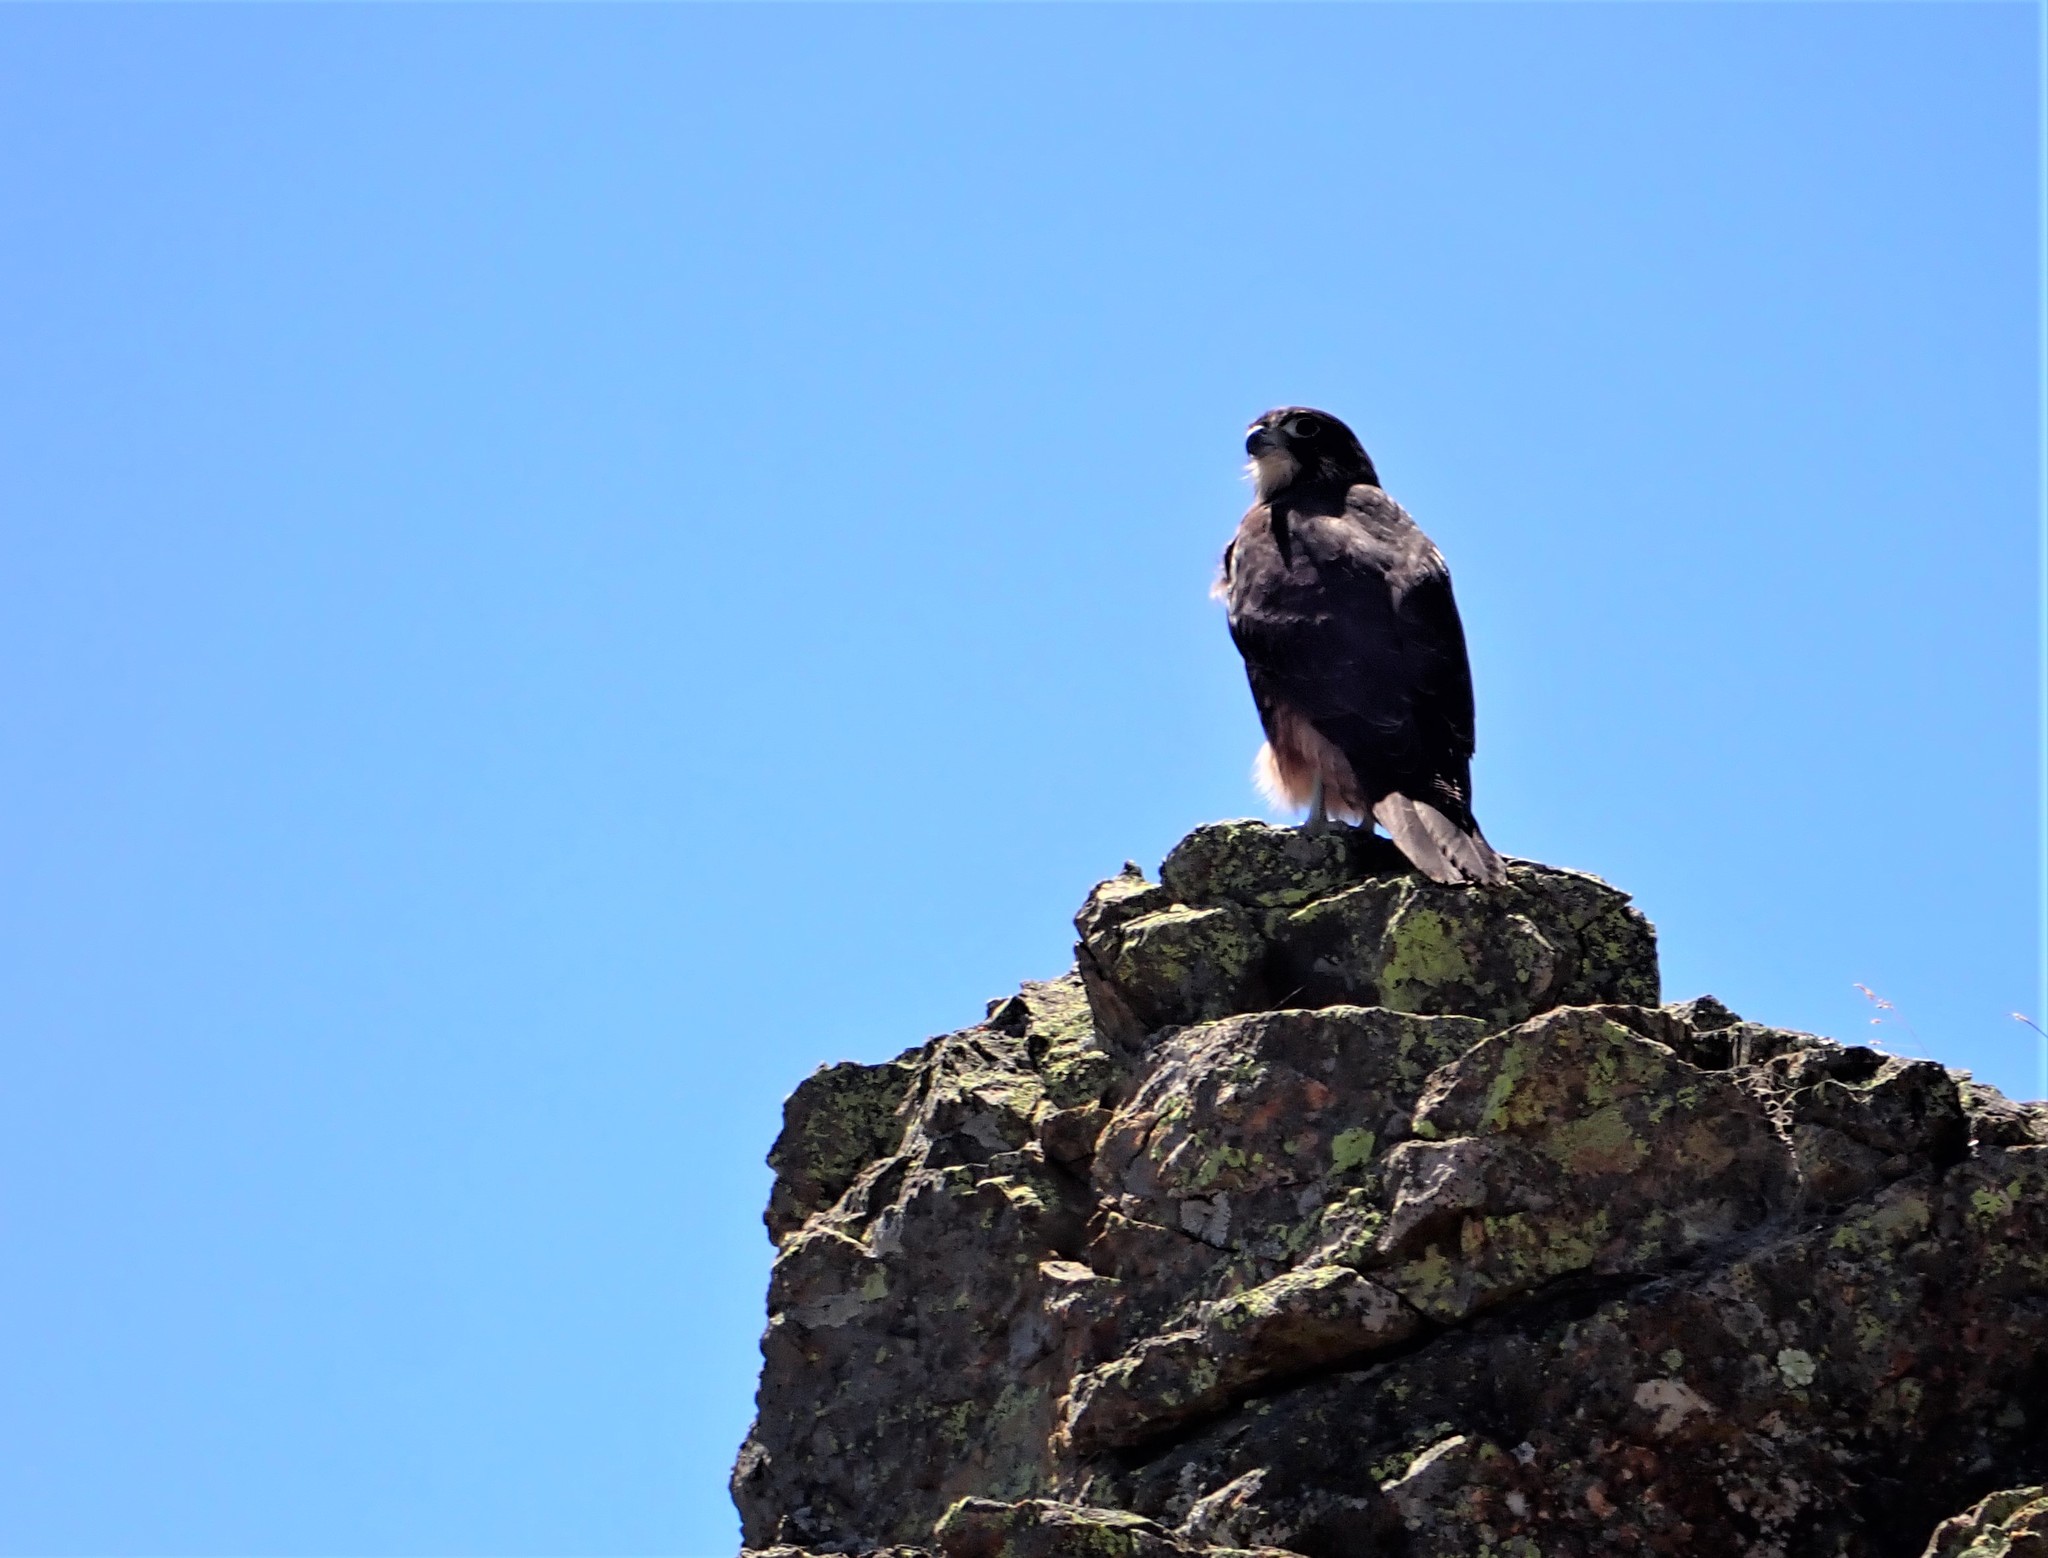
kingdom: Animalia
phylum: Chordata
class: Aves
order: Falconiformes
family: Falconidae
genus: Falco
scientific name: Falco novaeseelandiae
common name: New zealand falcon
